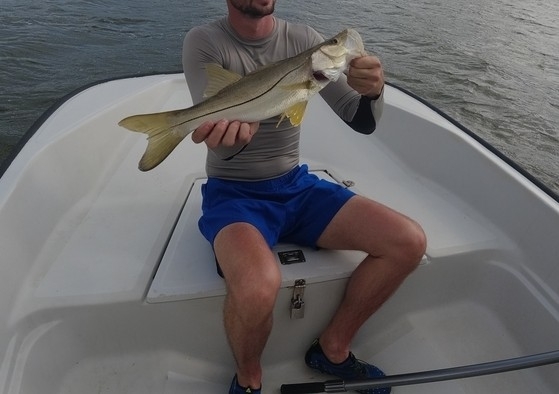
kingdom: Animalia
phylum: Chordata
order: Perciformes
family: Centropomidae
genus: Centropomus
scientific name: Centropomus undecimalis
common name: Snook
